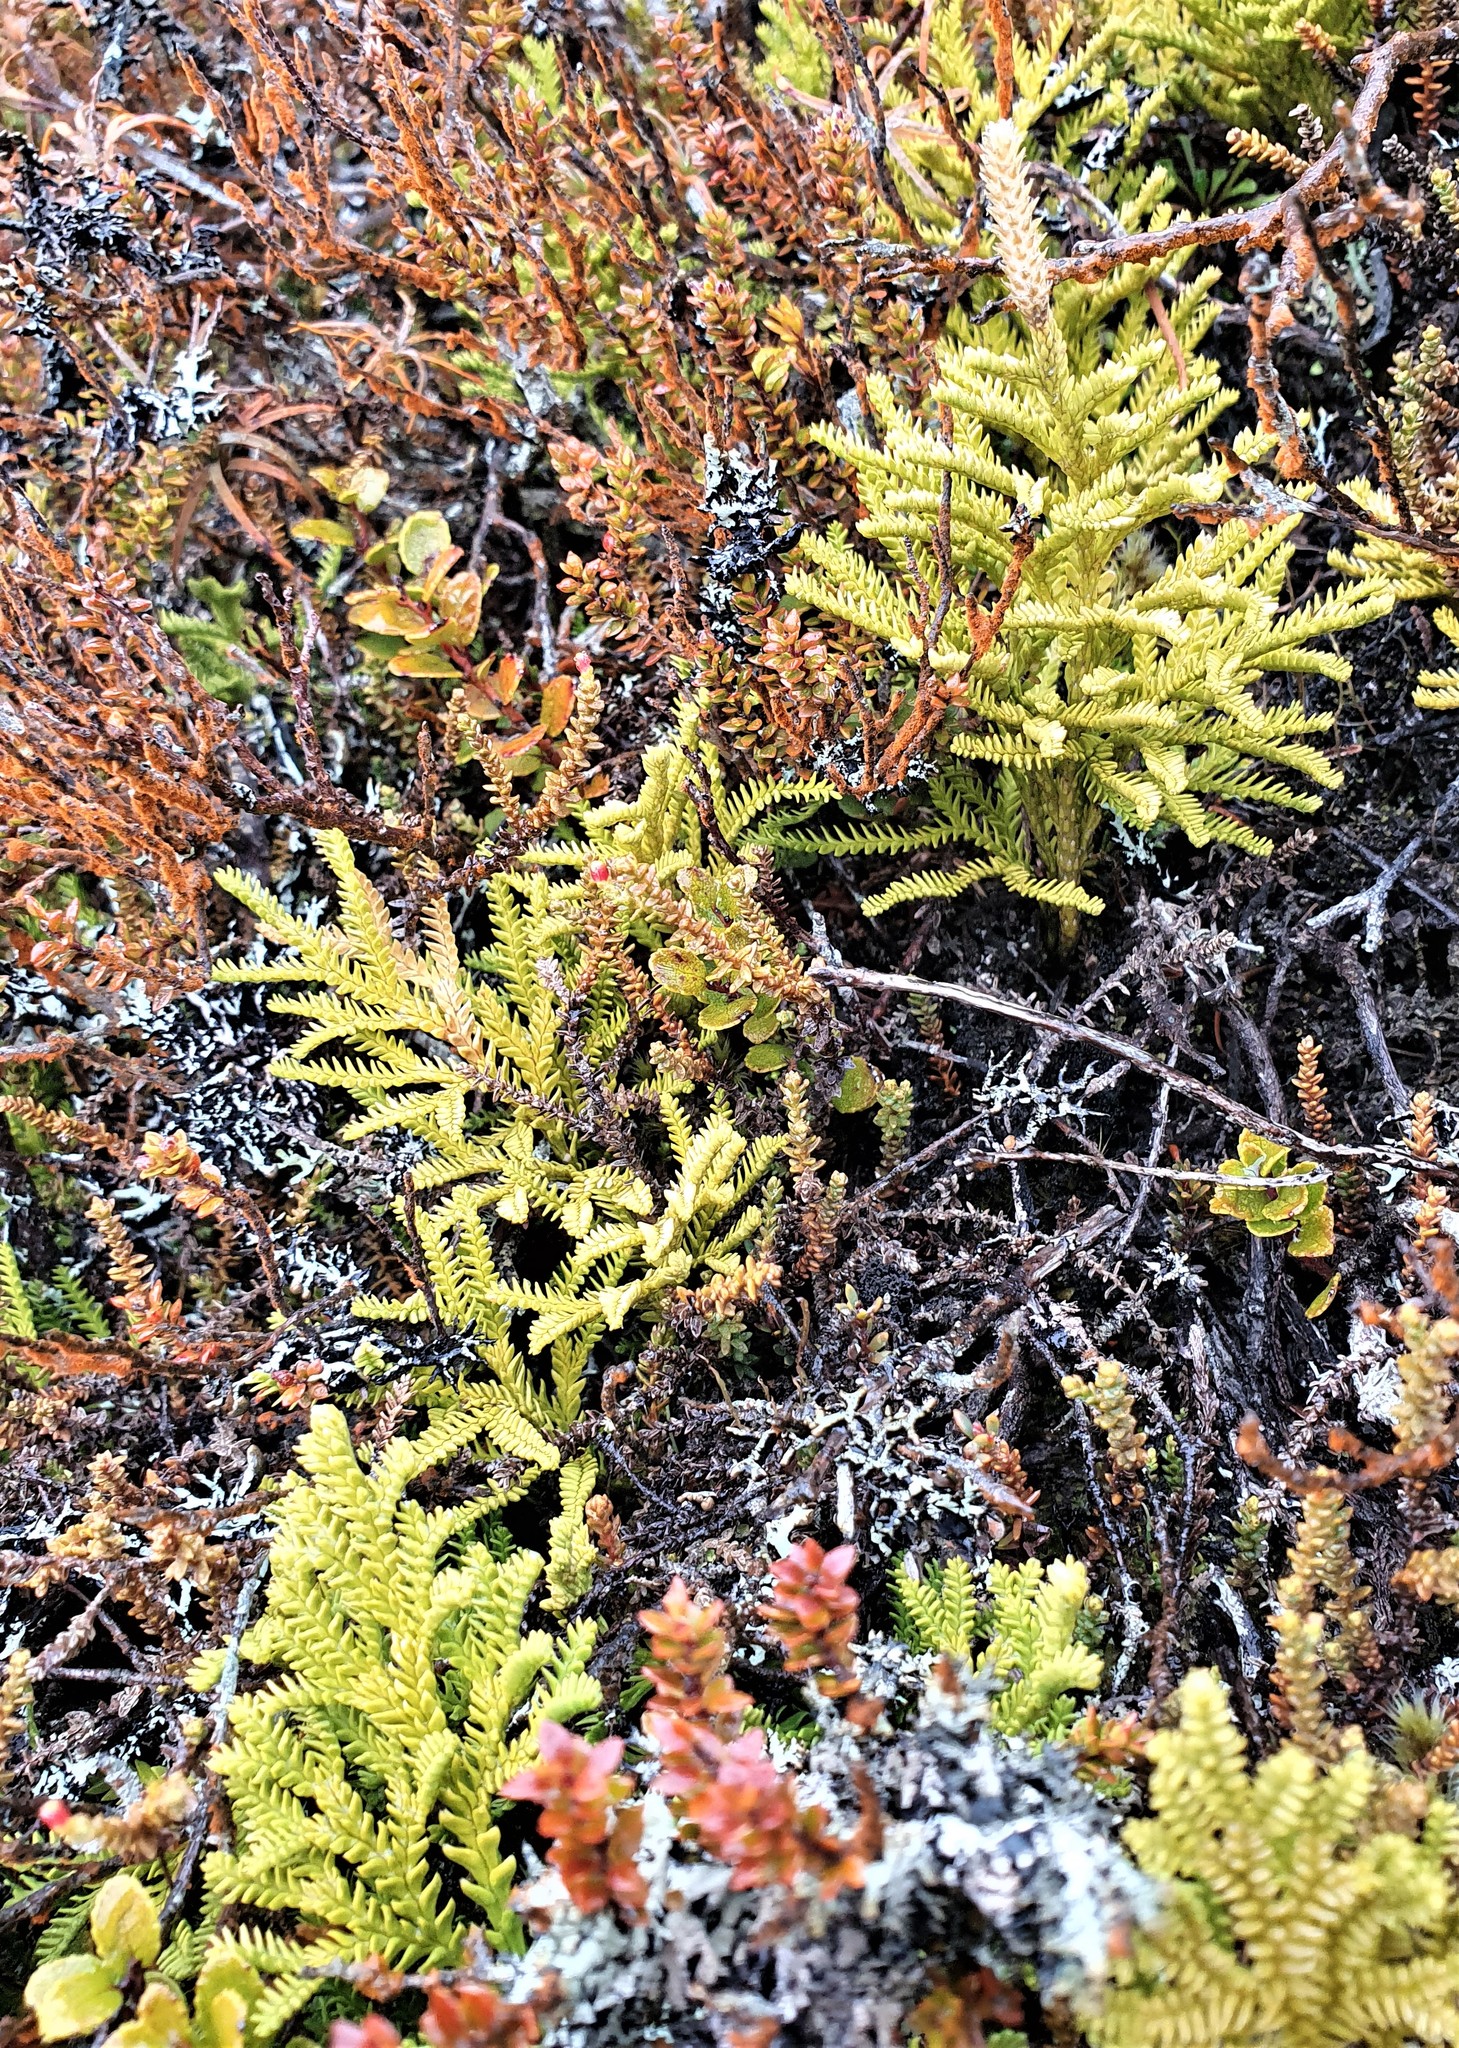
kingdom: Plantae
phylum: Tracheophyta
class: Lycopodiopsida
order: Lycopodiales
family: Lycopodiaceae
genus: Diphasium
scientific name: Diphasium scariosum
